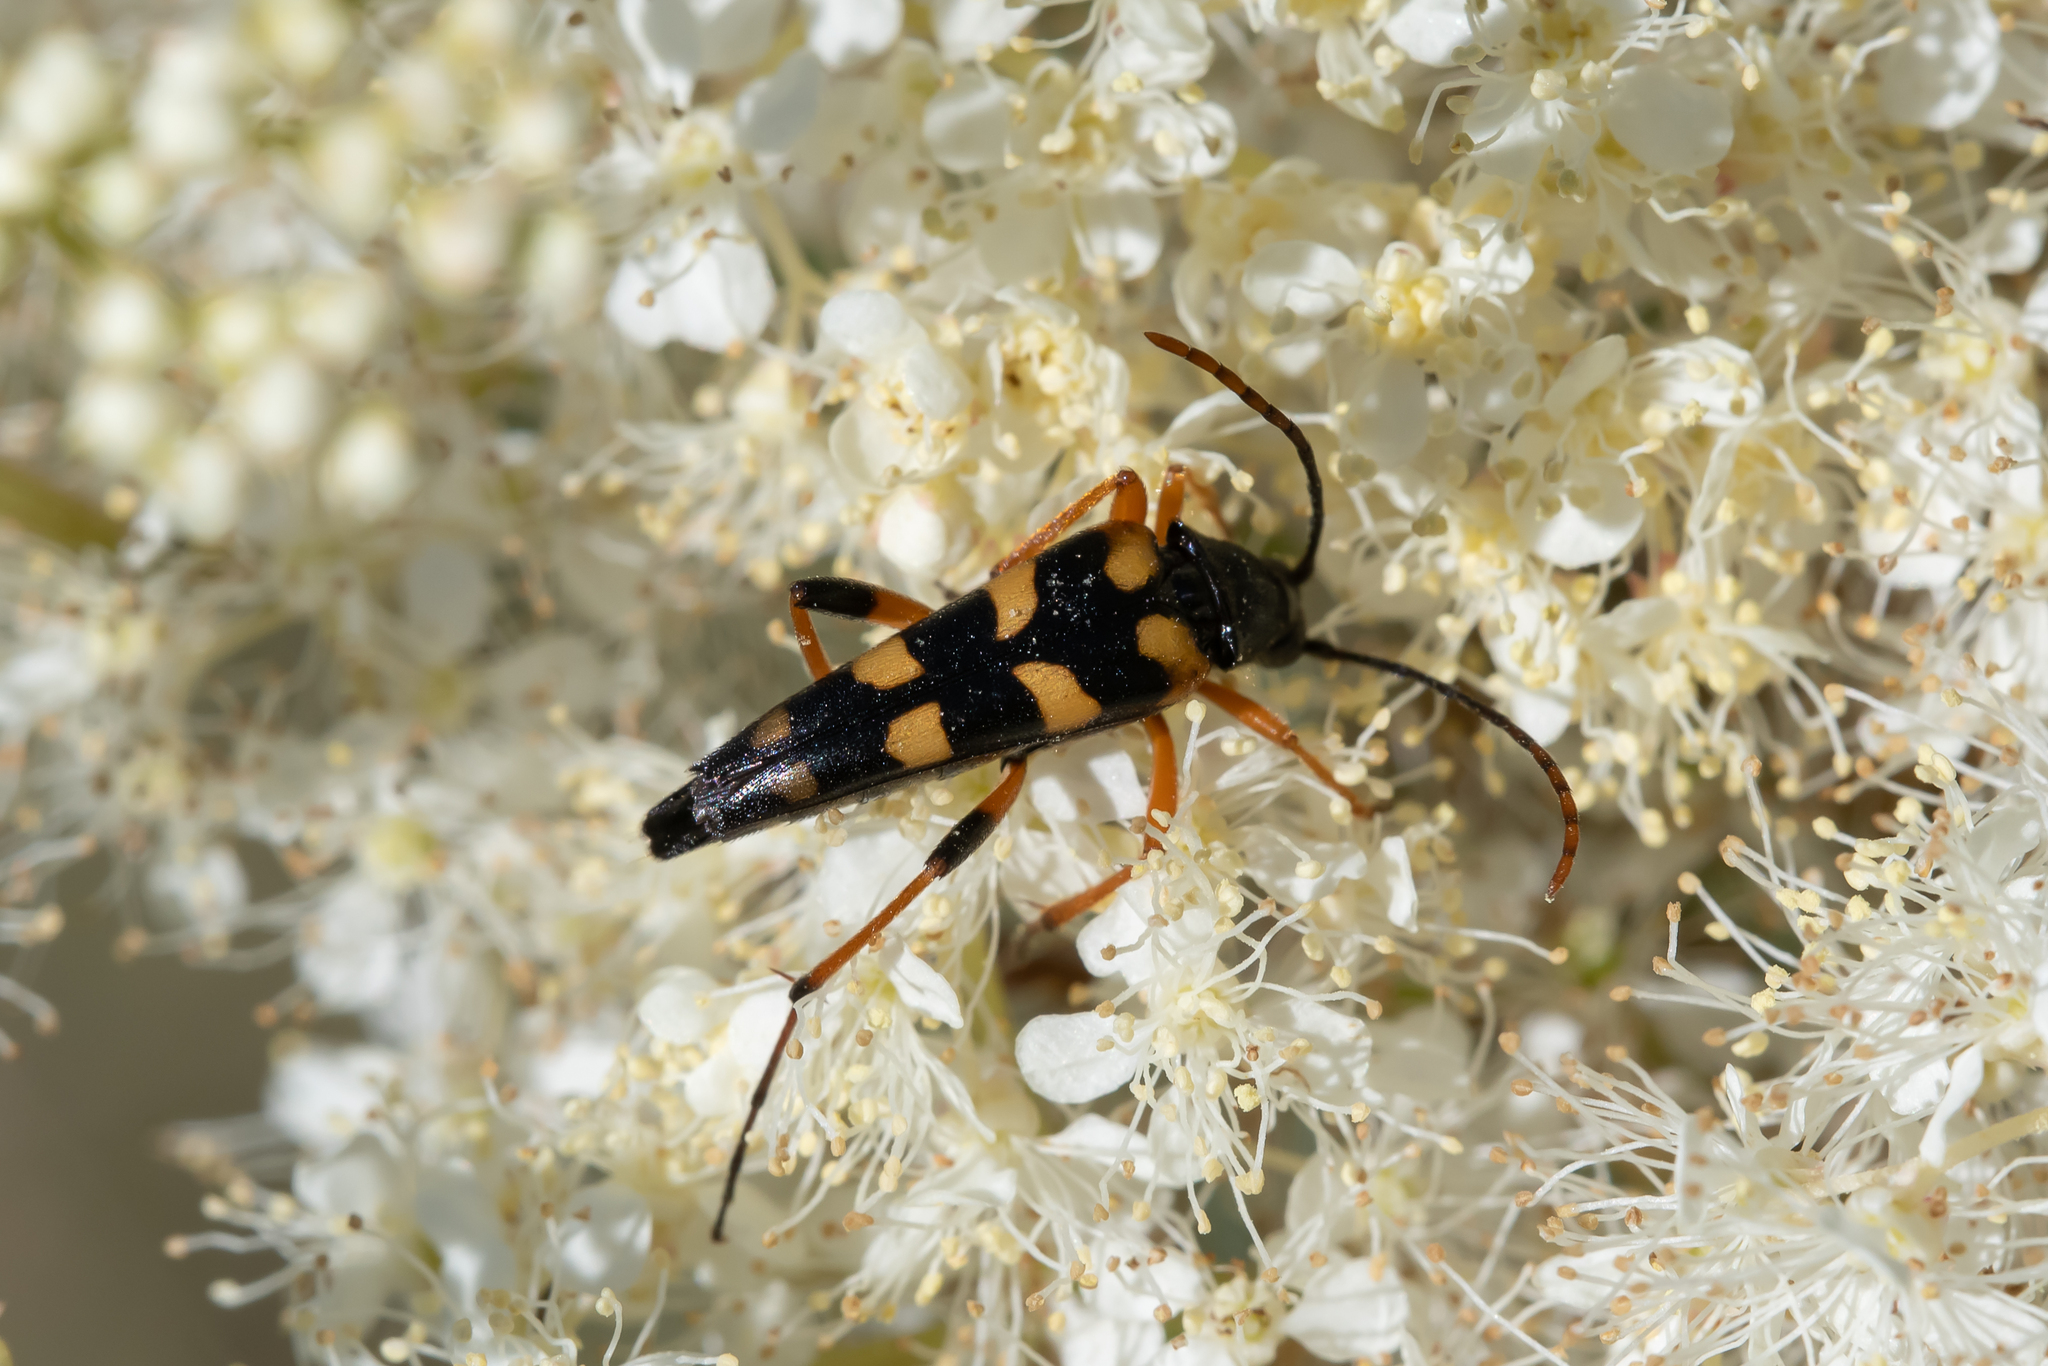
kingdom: Animalia
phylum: Arthropoda
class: Insecta
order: Coleoptera
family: Cerambycidae
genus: Strangalia
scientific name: Strangalia attenuata
